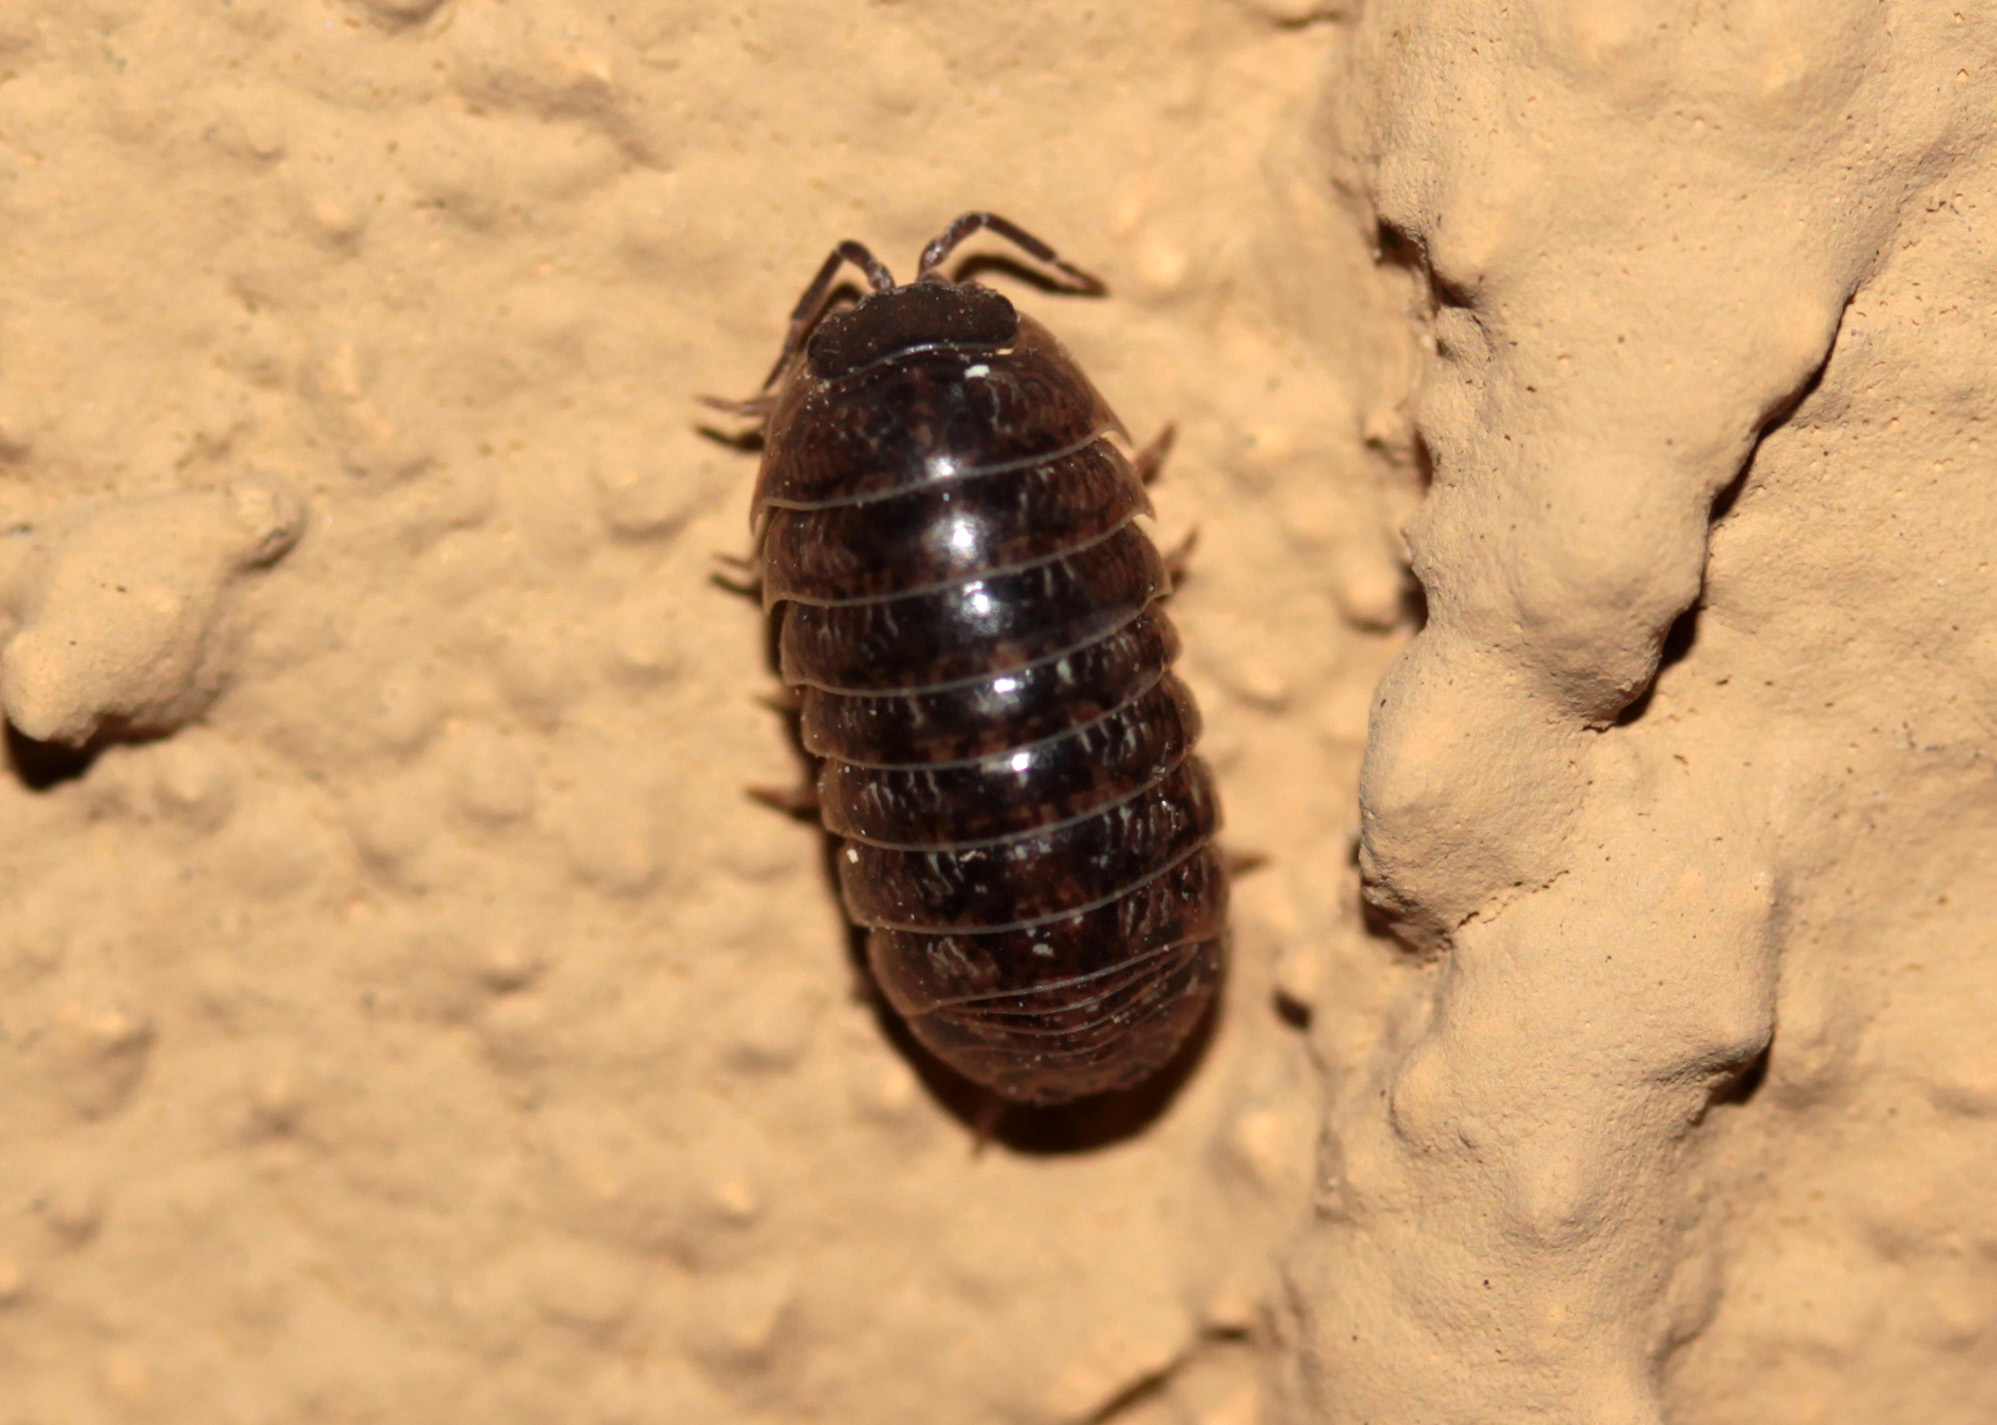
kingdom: Animalia
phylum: Arthropoda
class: Malacostraca
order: Isopoda
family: Armadillidiidae
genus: Armadillidium
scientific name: Armadillidium vulgare
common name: Common pill woodlouse
